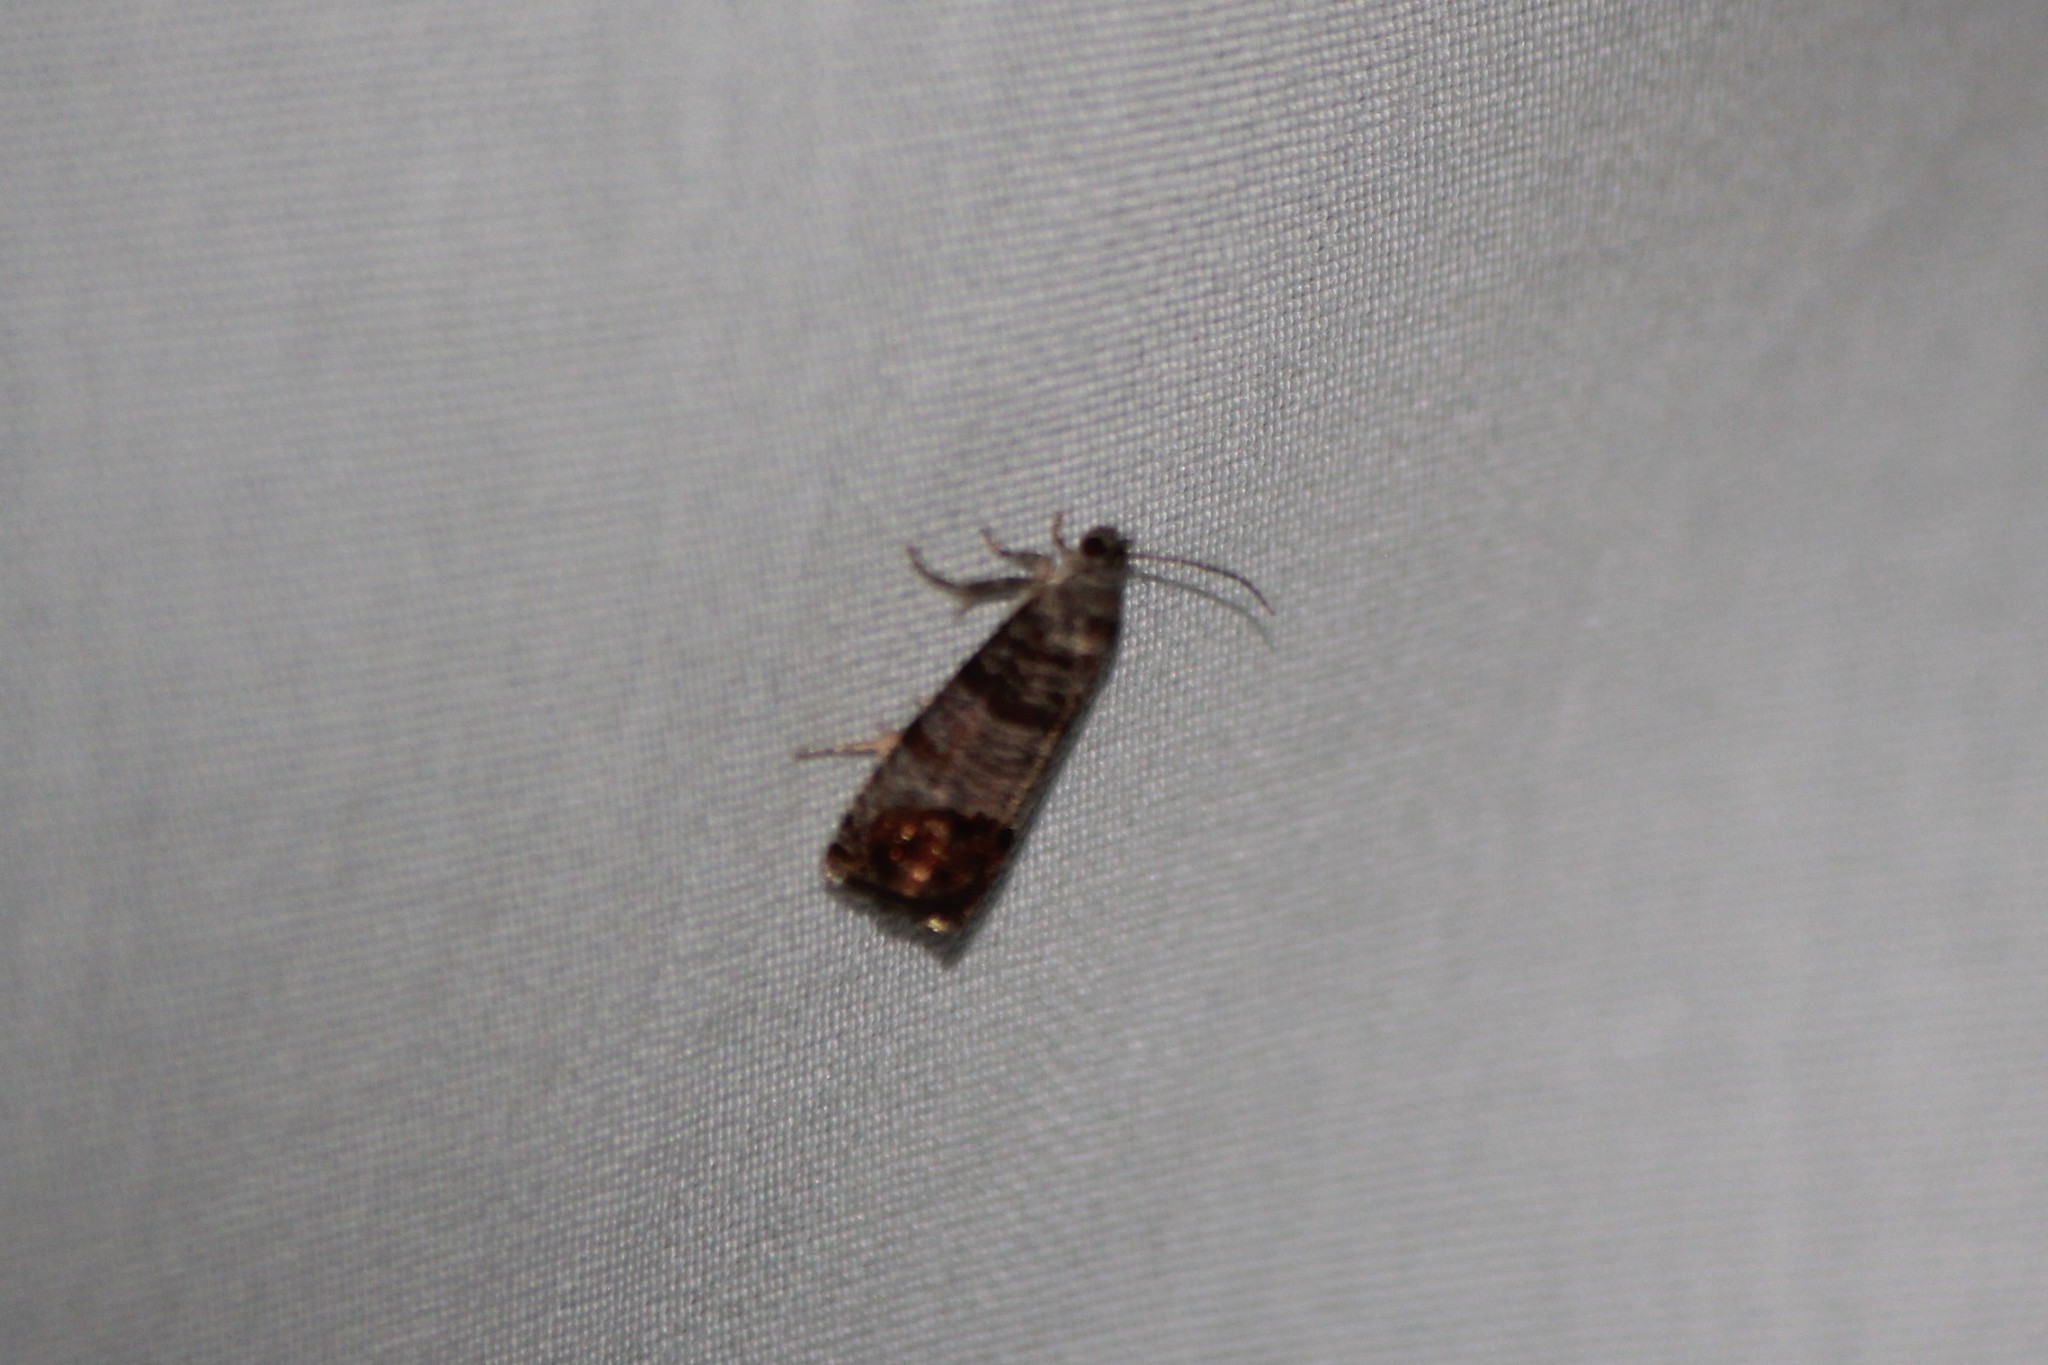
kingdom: Animalia
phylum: Arthropoda
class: Insecta
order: Lepidoptera
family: Tortricidae
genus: Cydia
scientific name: Cydia pomonella
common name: Codling moth
